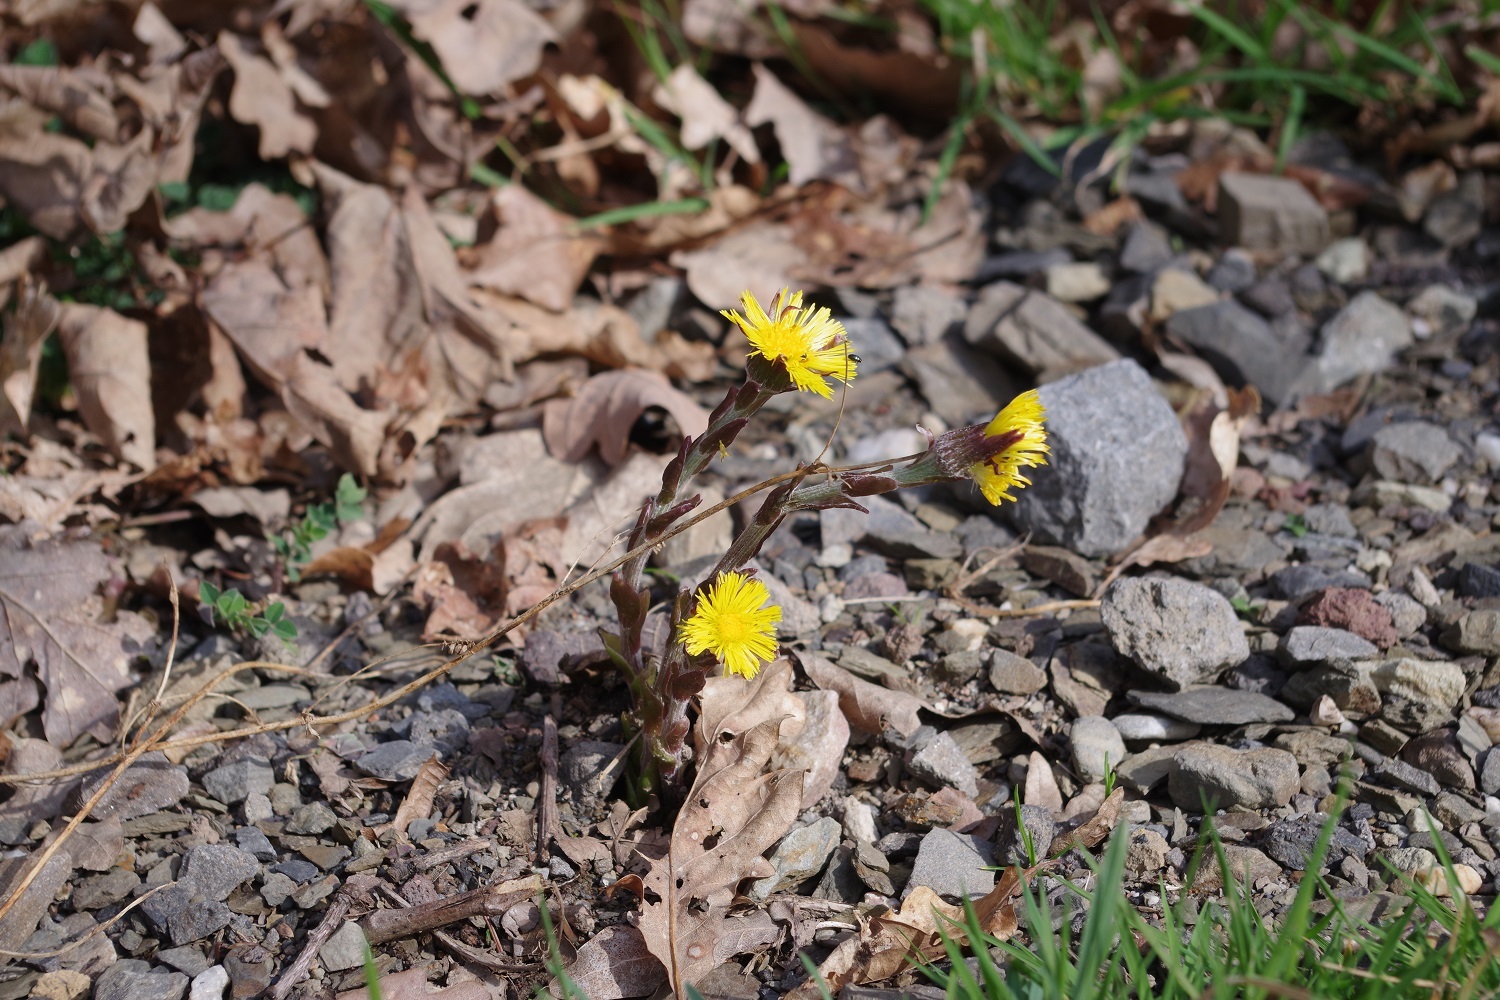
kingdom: Plantae
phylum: Tracheophyta
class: Magnoliopsida
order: Asterales
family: Asteraceae
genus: Tussilago
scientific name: Tussilago farfara
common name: Coltsfoot
